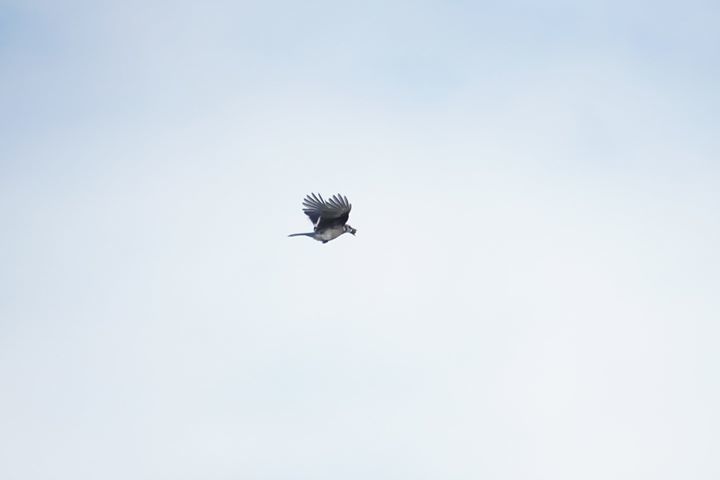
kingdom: Animalia
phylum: Chordata
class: Aves
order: Passeriformes
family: Corvidae
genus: Cyanocitta
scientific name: Cyanocitta cristata
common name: Blue jay
